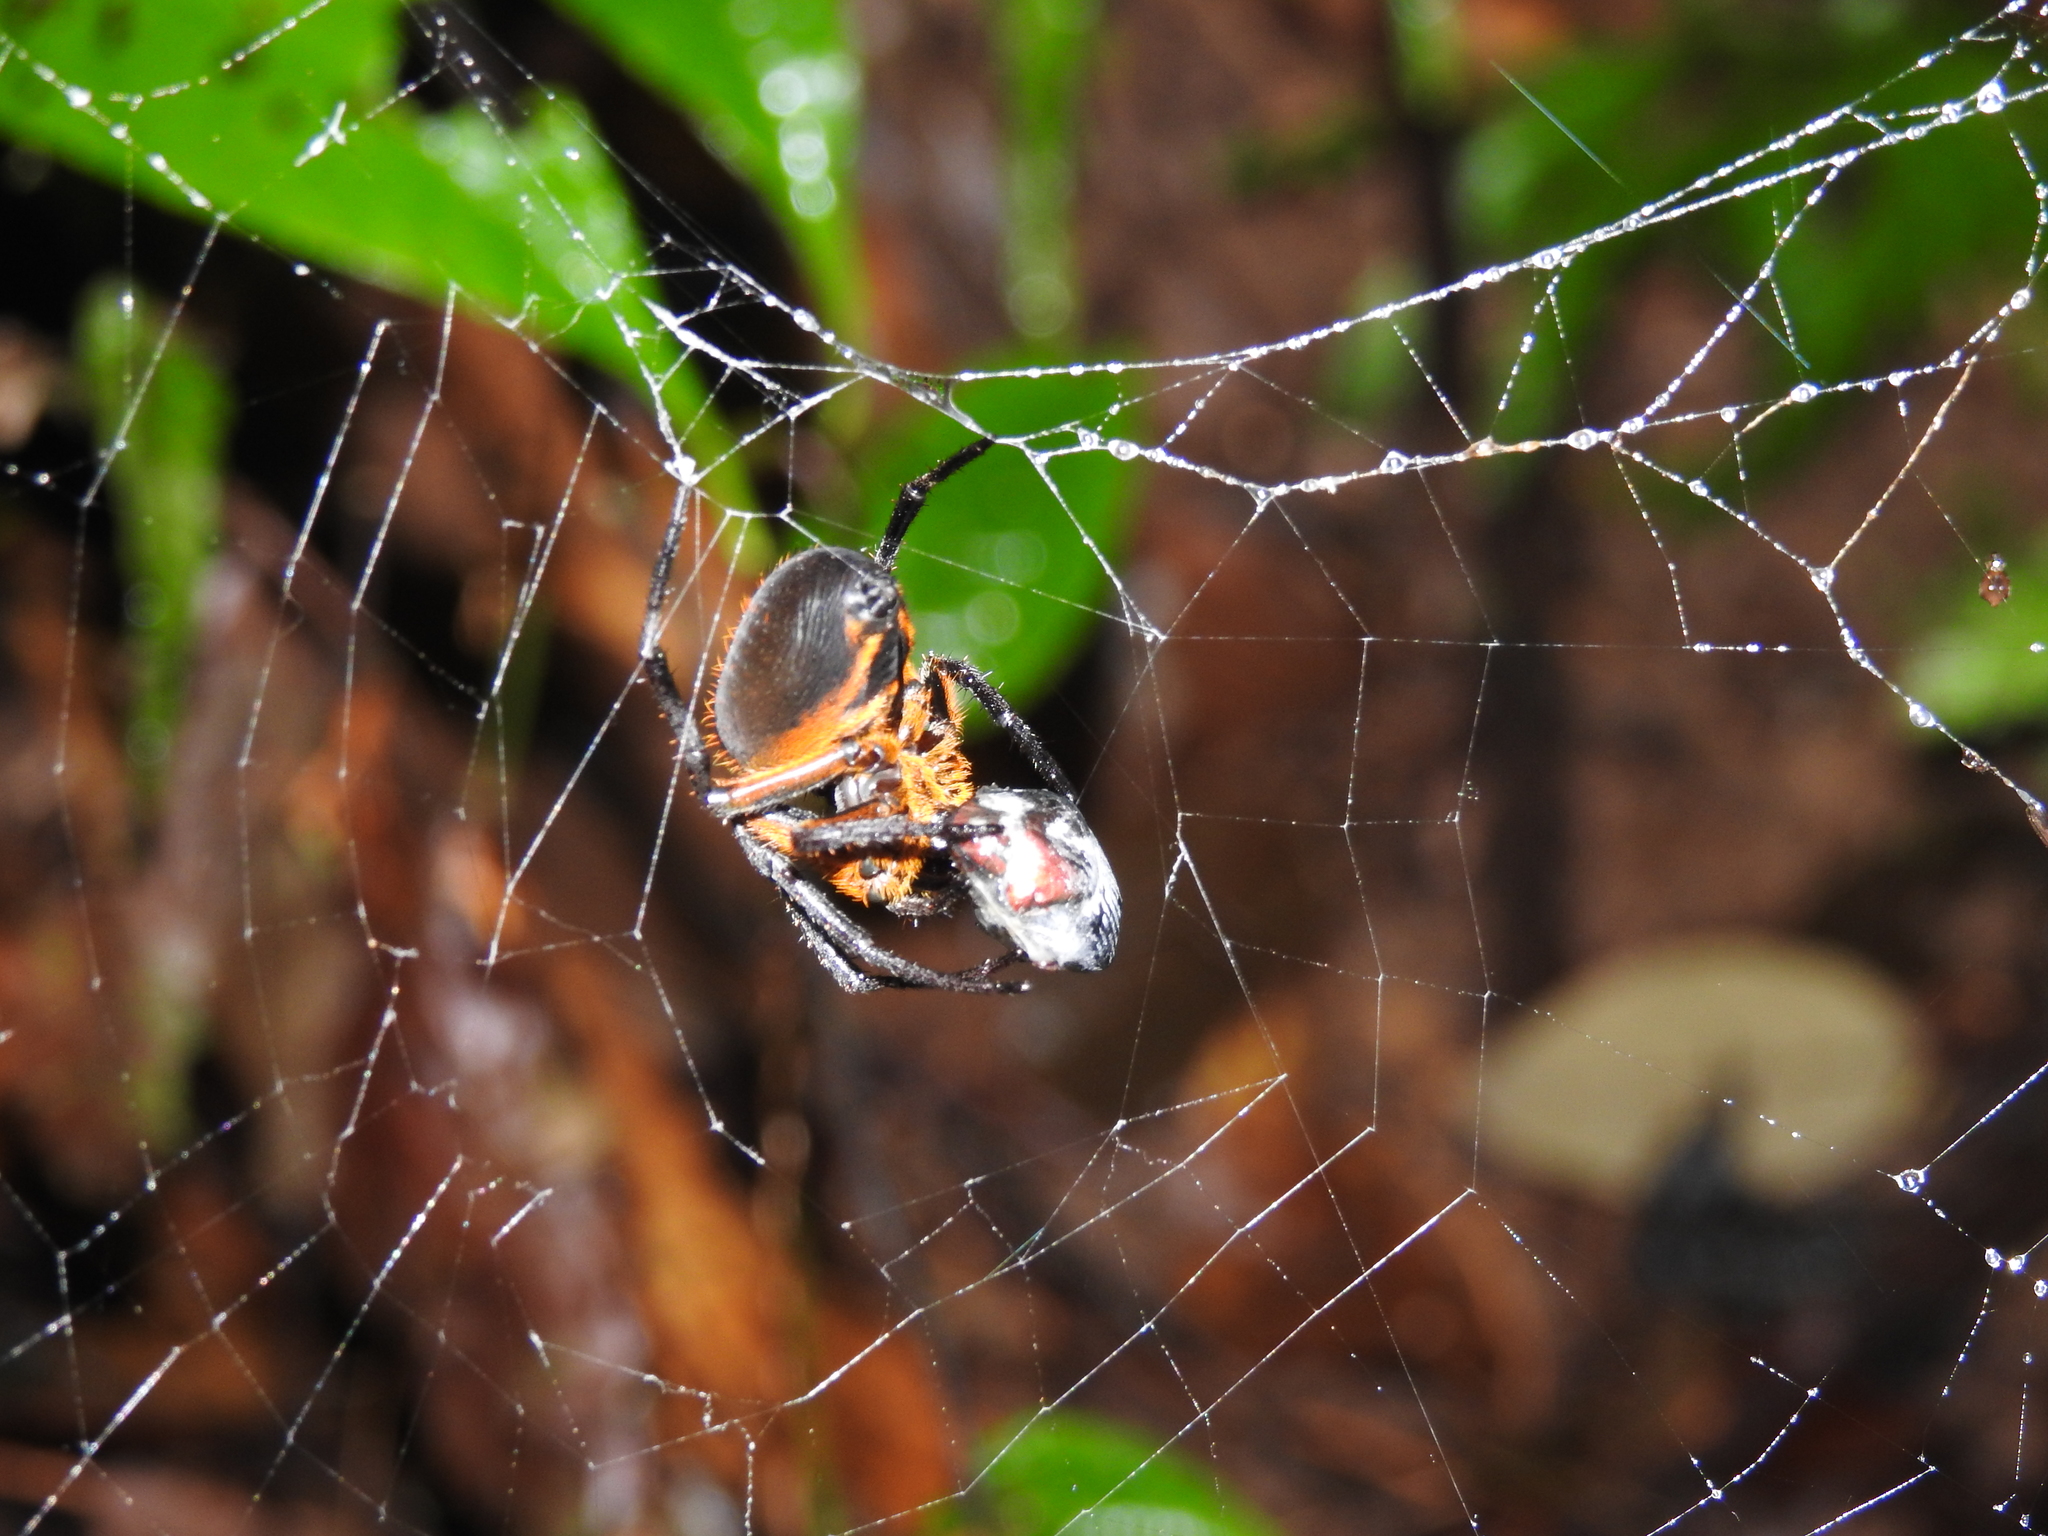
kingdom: Animalia
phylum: Arthropoda
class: Arachnida
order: Araneae
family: Araneidae
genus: Eriophora
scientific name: Eriophora fuliginea
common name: Orb weavers
